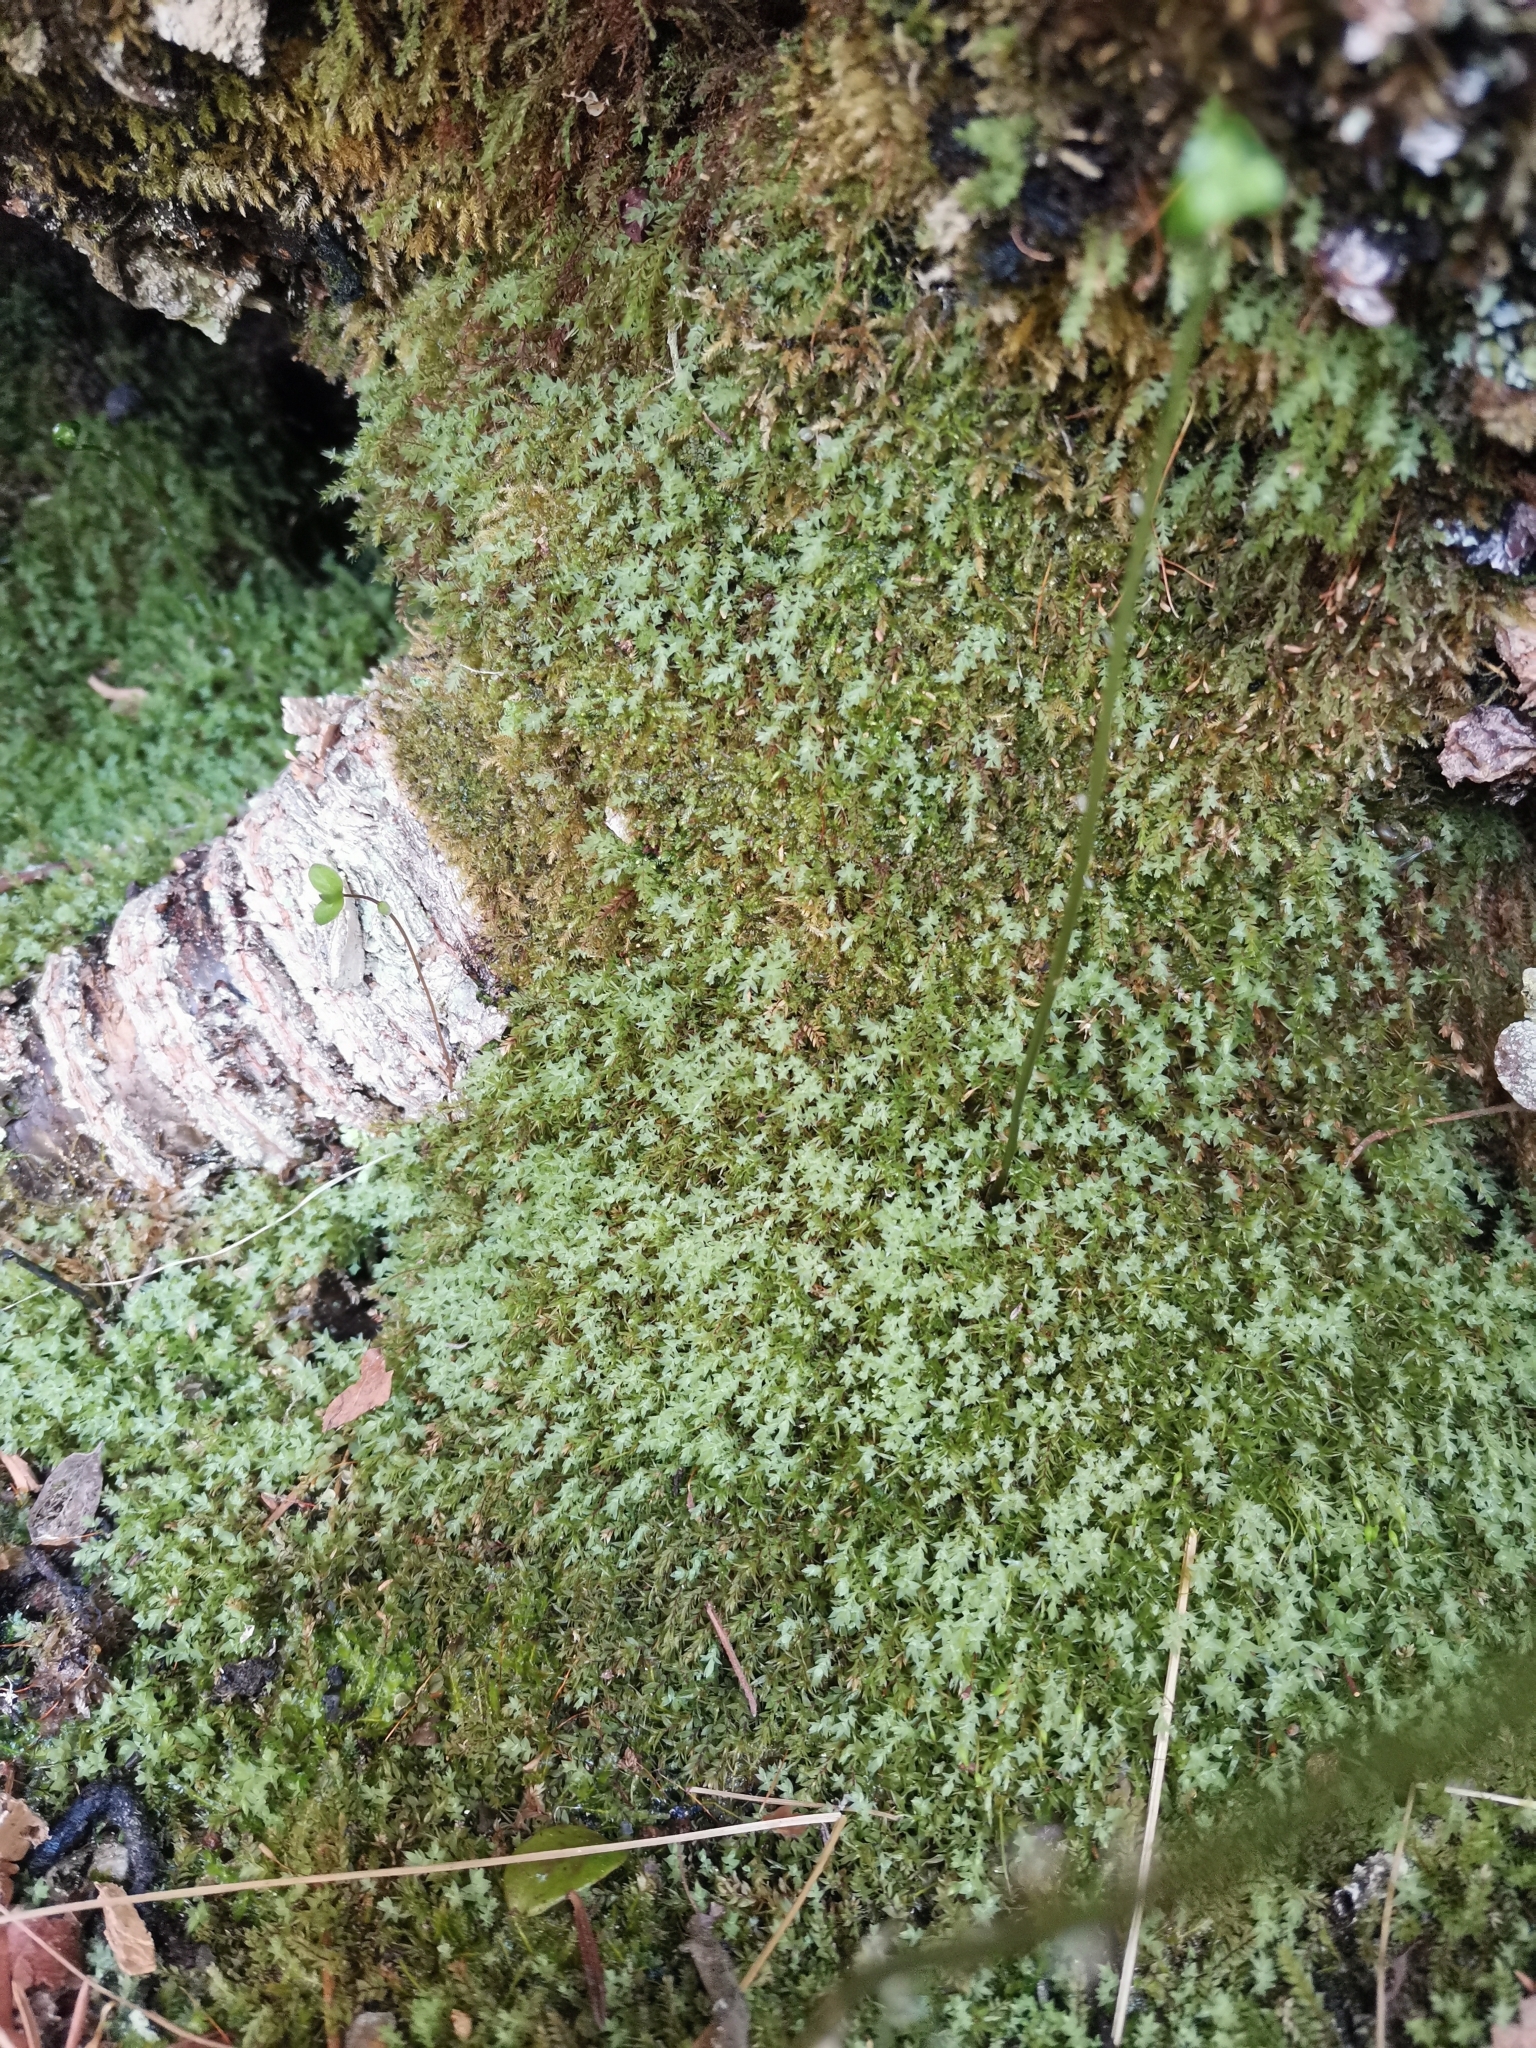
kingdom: Plantae
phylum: Bryophyta
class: Bryopsida
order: Bryales
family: Mniaceae
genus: Pohlia
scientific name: Pohlia cruda
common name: Opal nodding moss
